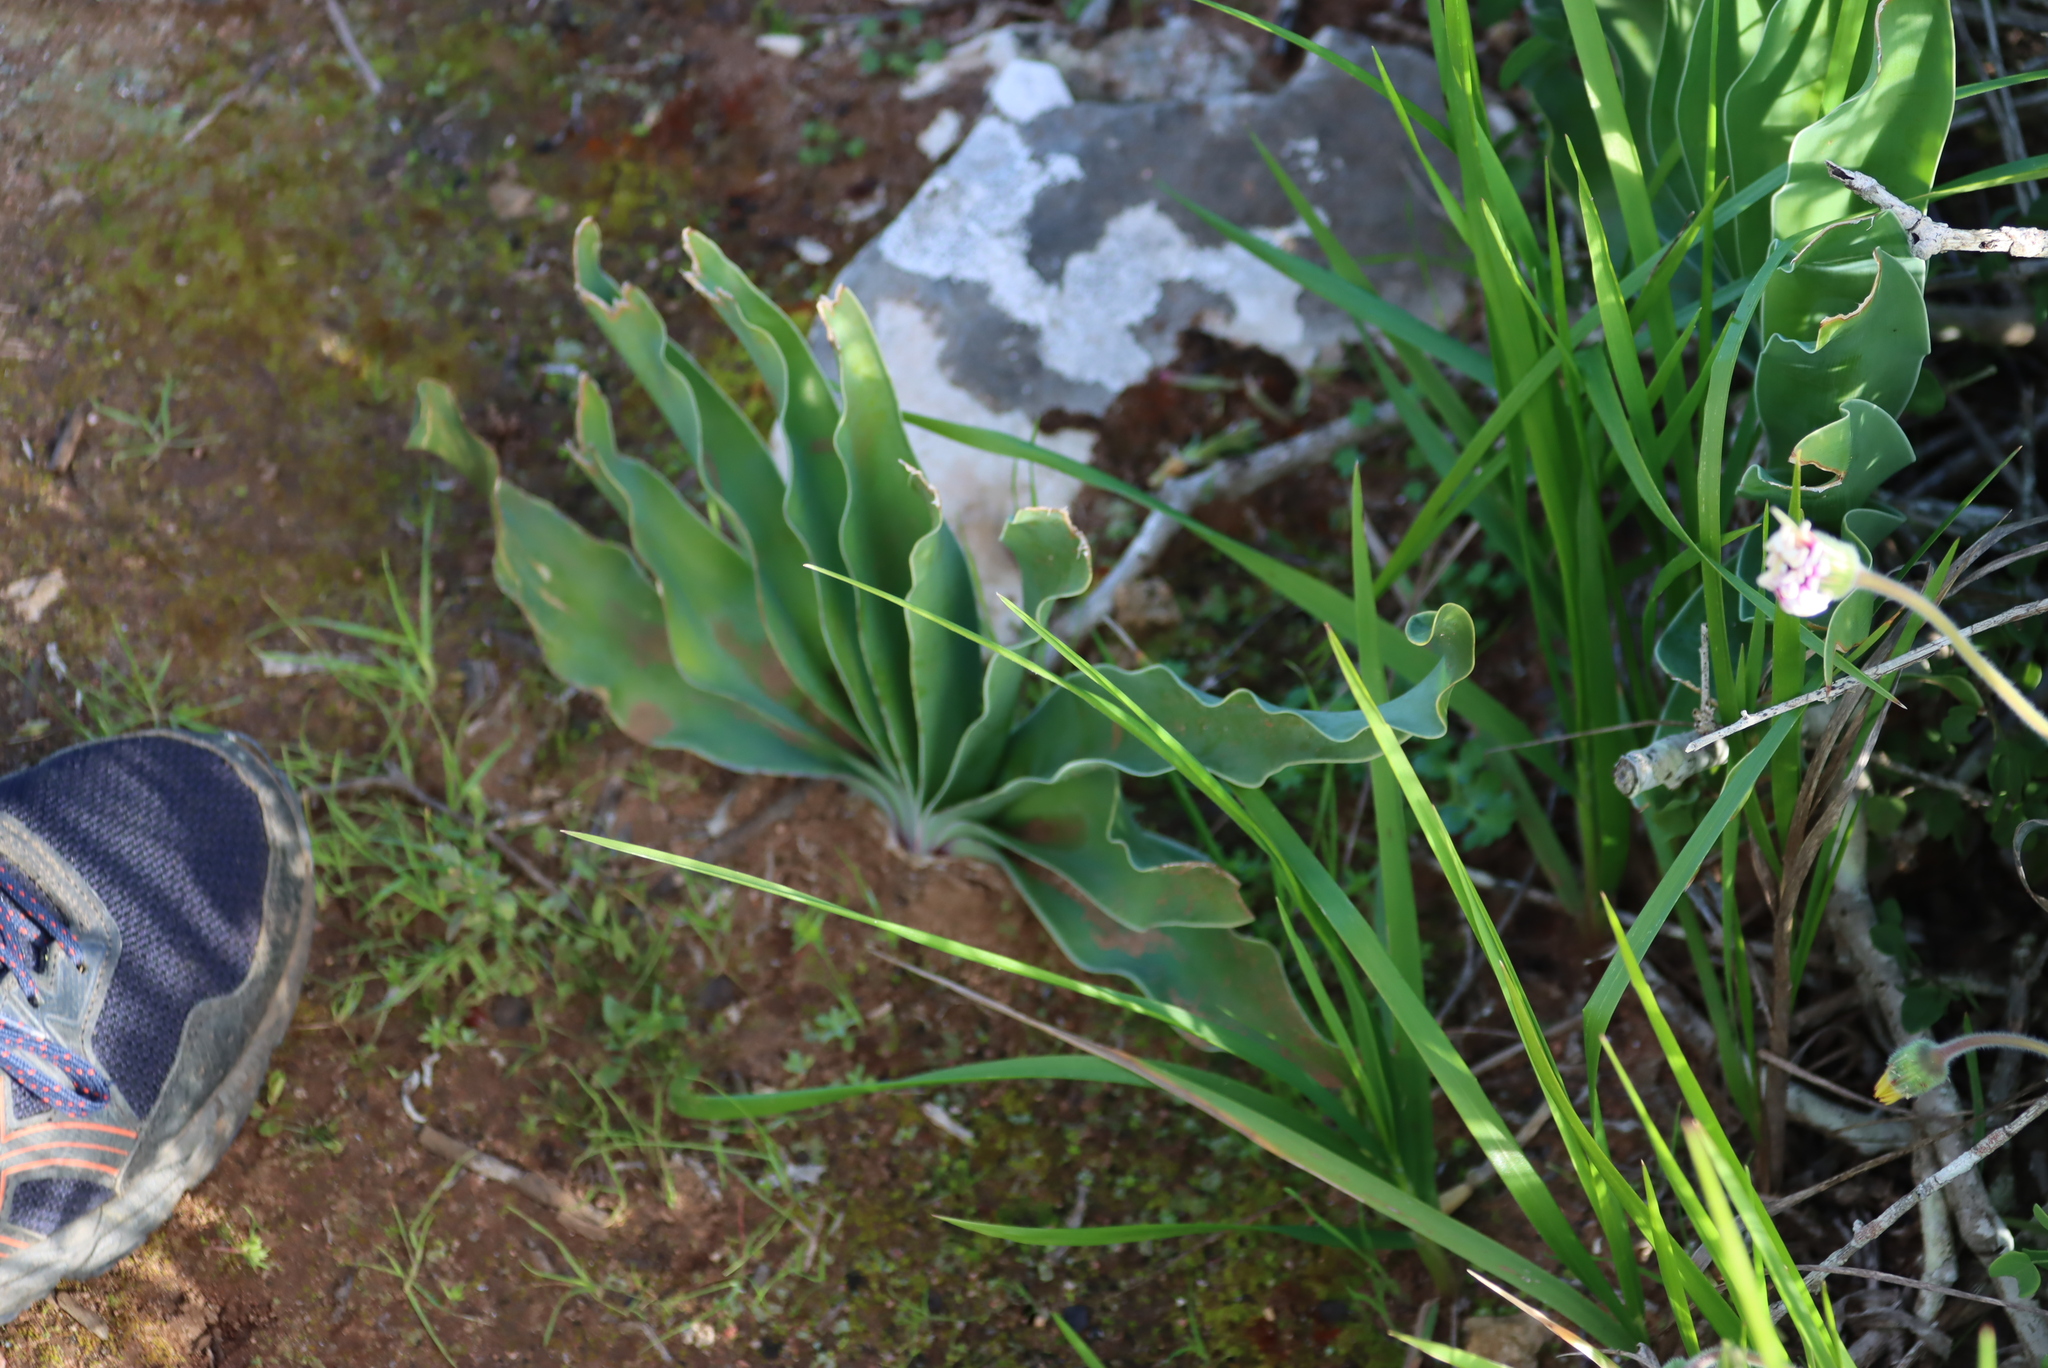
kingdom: Plantae
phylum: Tracheophyta
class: Liliopsida
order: Asparagales
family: Amaryllidaceae
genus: Boophone
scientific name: Boophone haemanthoides
